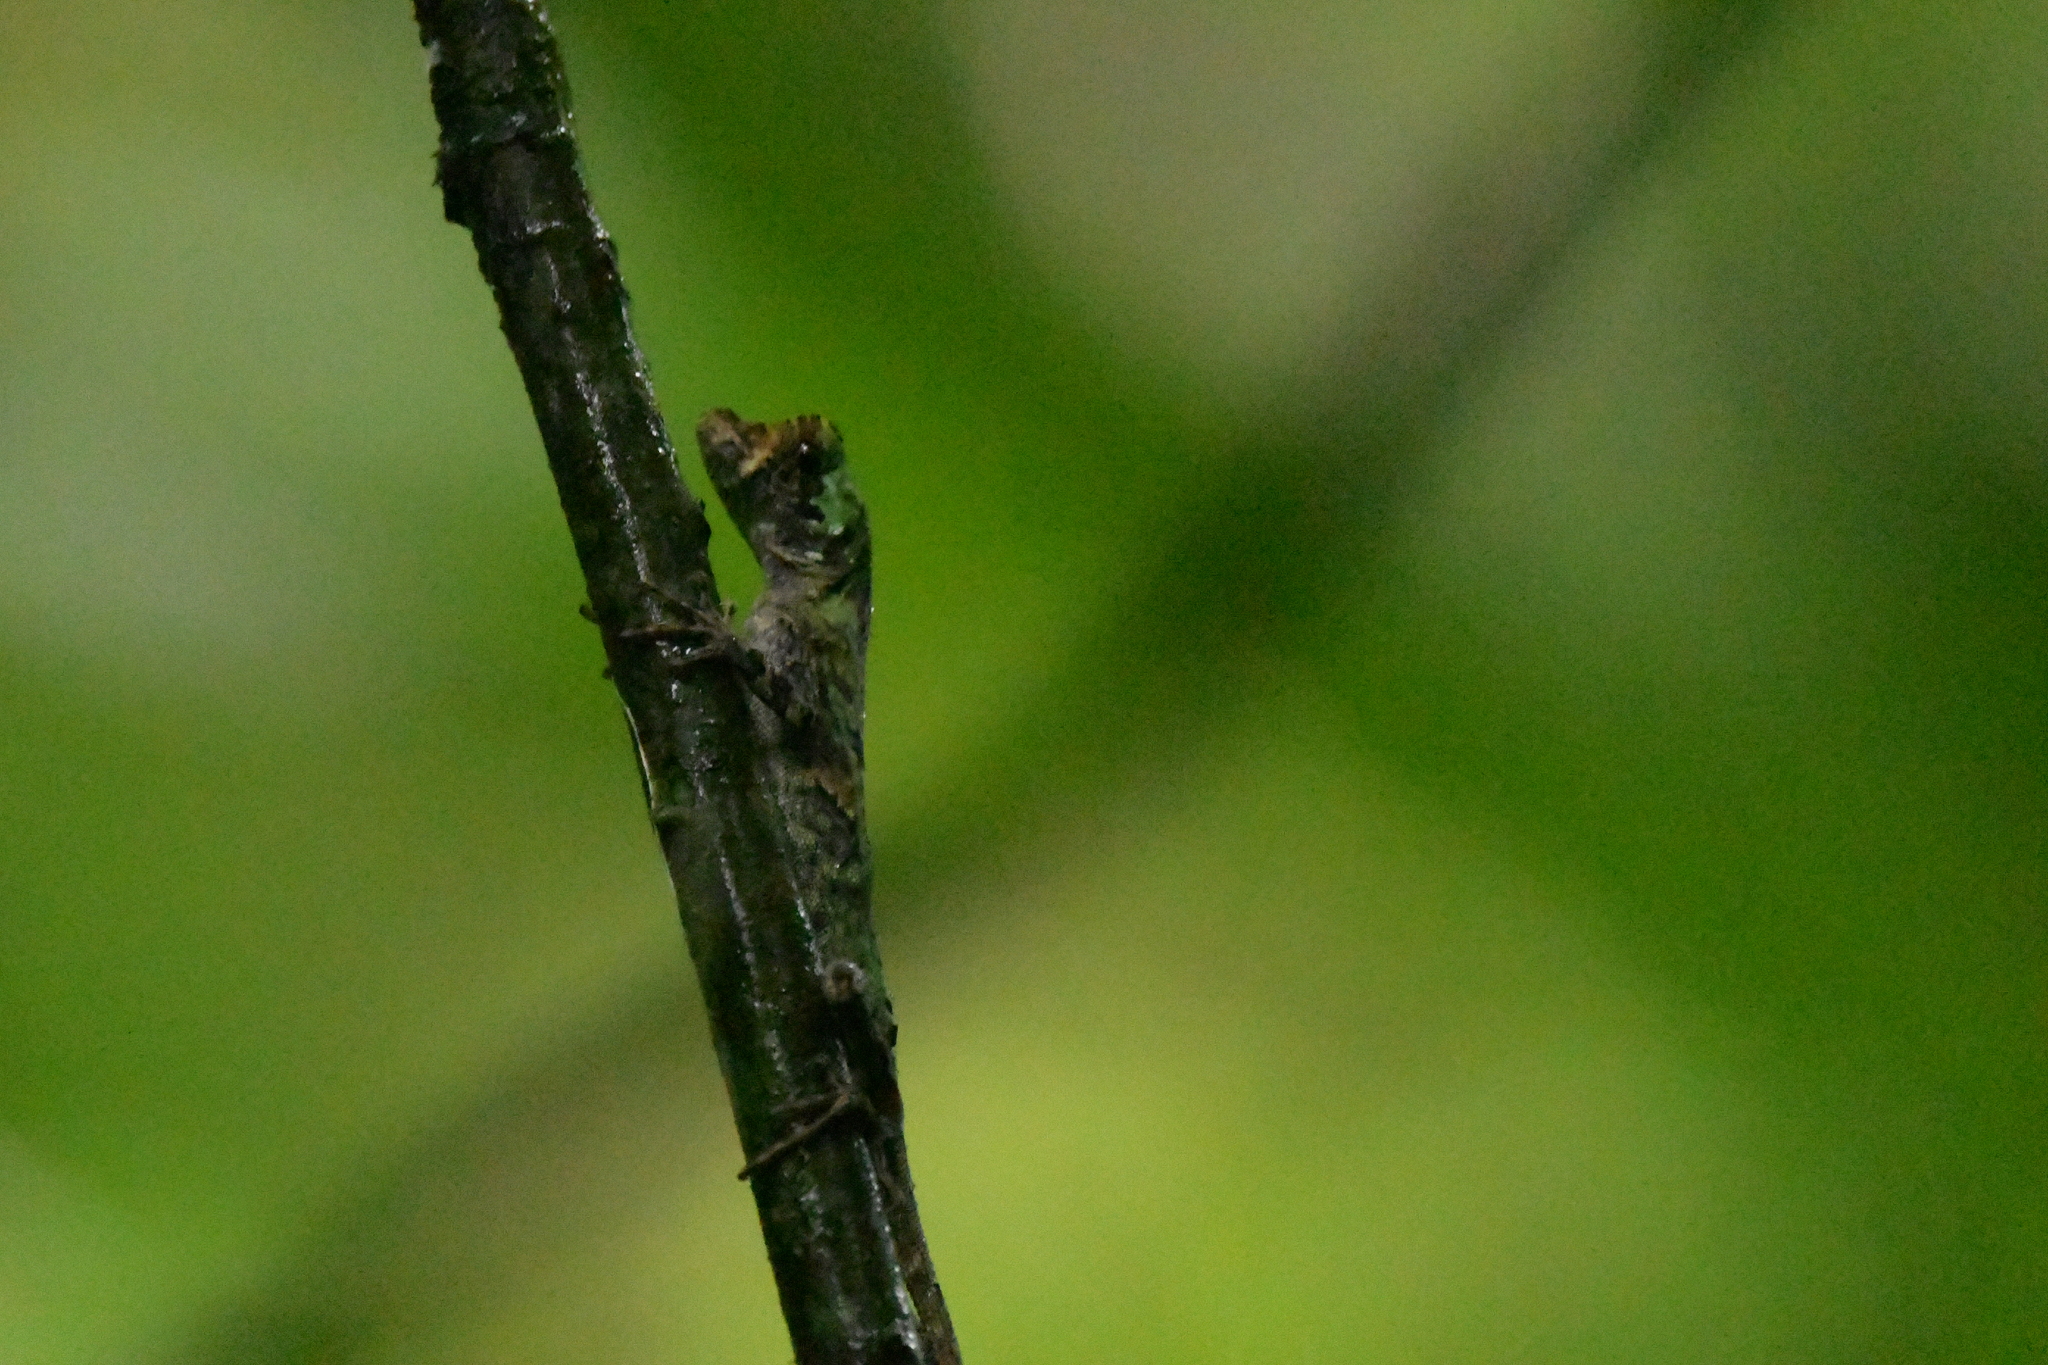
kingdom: Animalia
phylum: Chordata
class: Squamata
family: Dactyloidae
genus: Anolis
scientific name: Anolis capito
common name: Bighead anole
